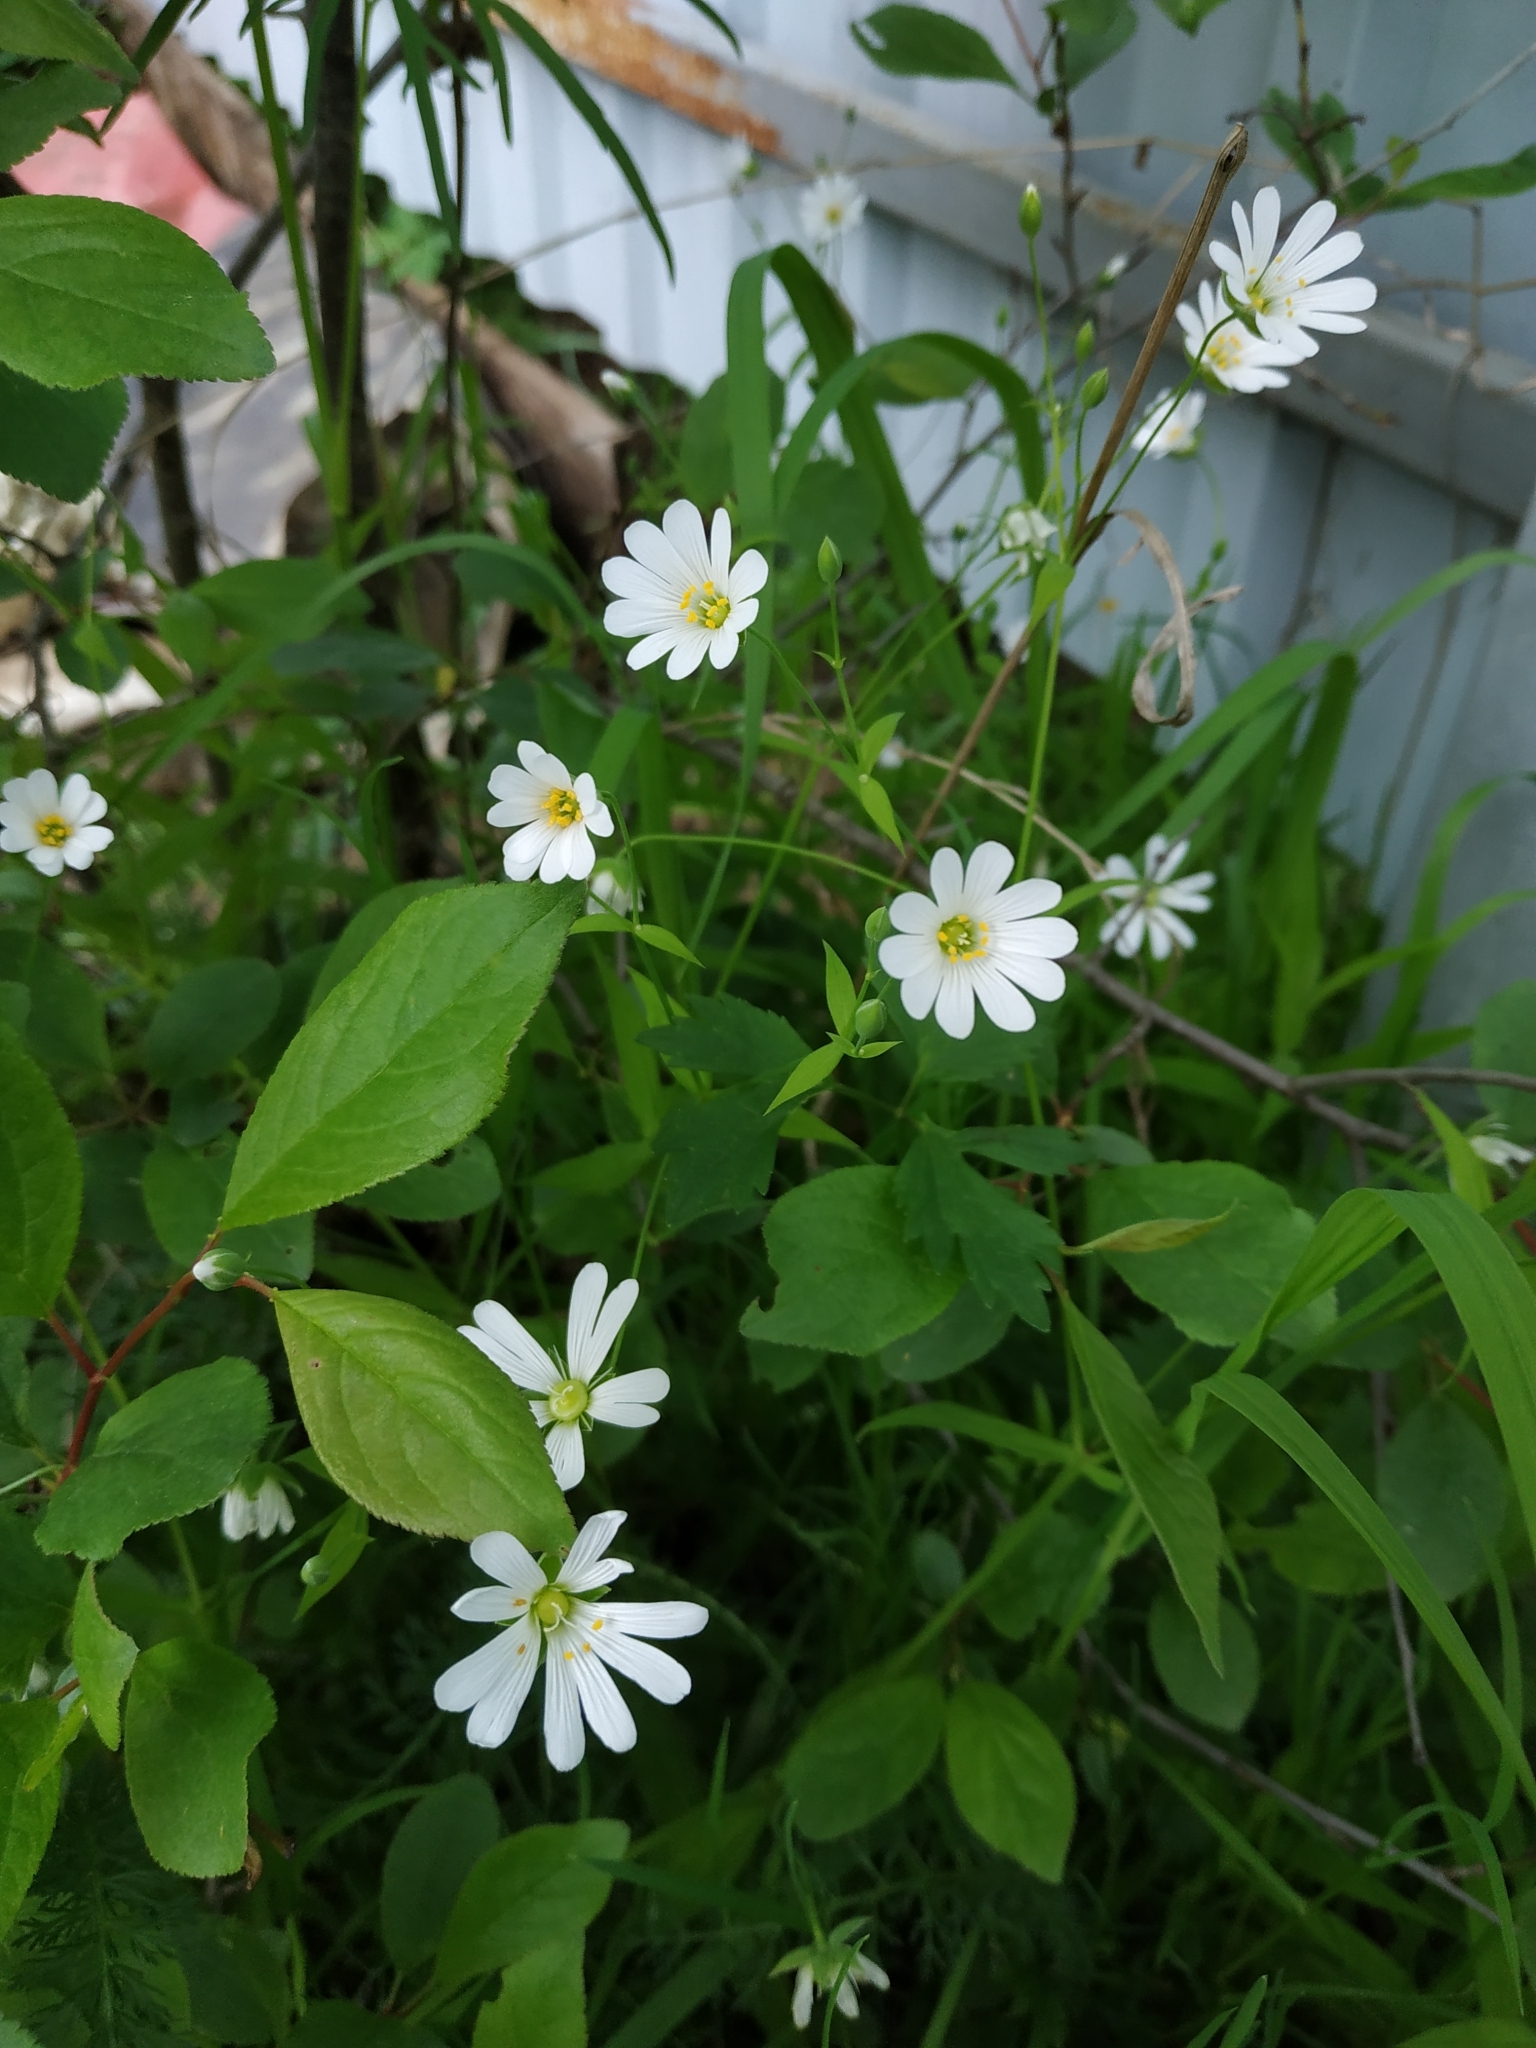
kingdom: Plantae
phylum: Tracheophyta
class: Magnoliopsida
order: Caryophyllales
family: Caryophyllaceae
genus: Rabelera
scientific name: Rabelera holostea
